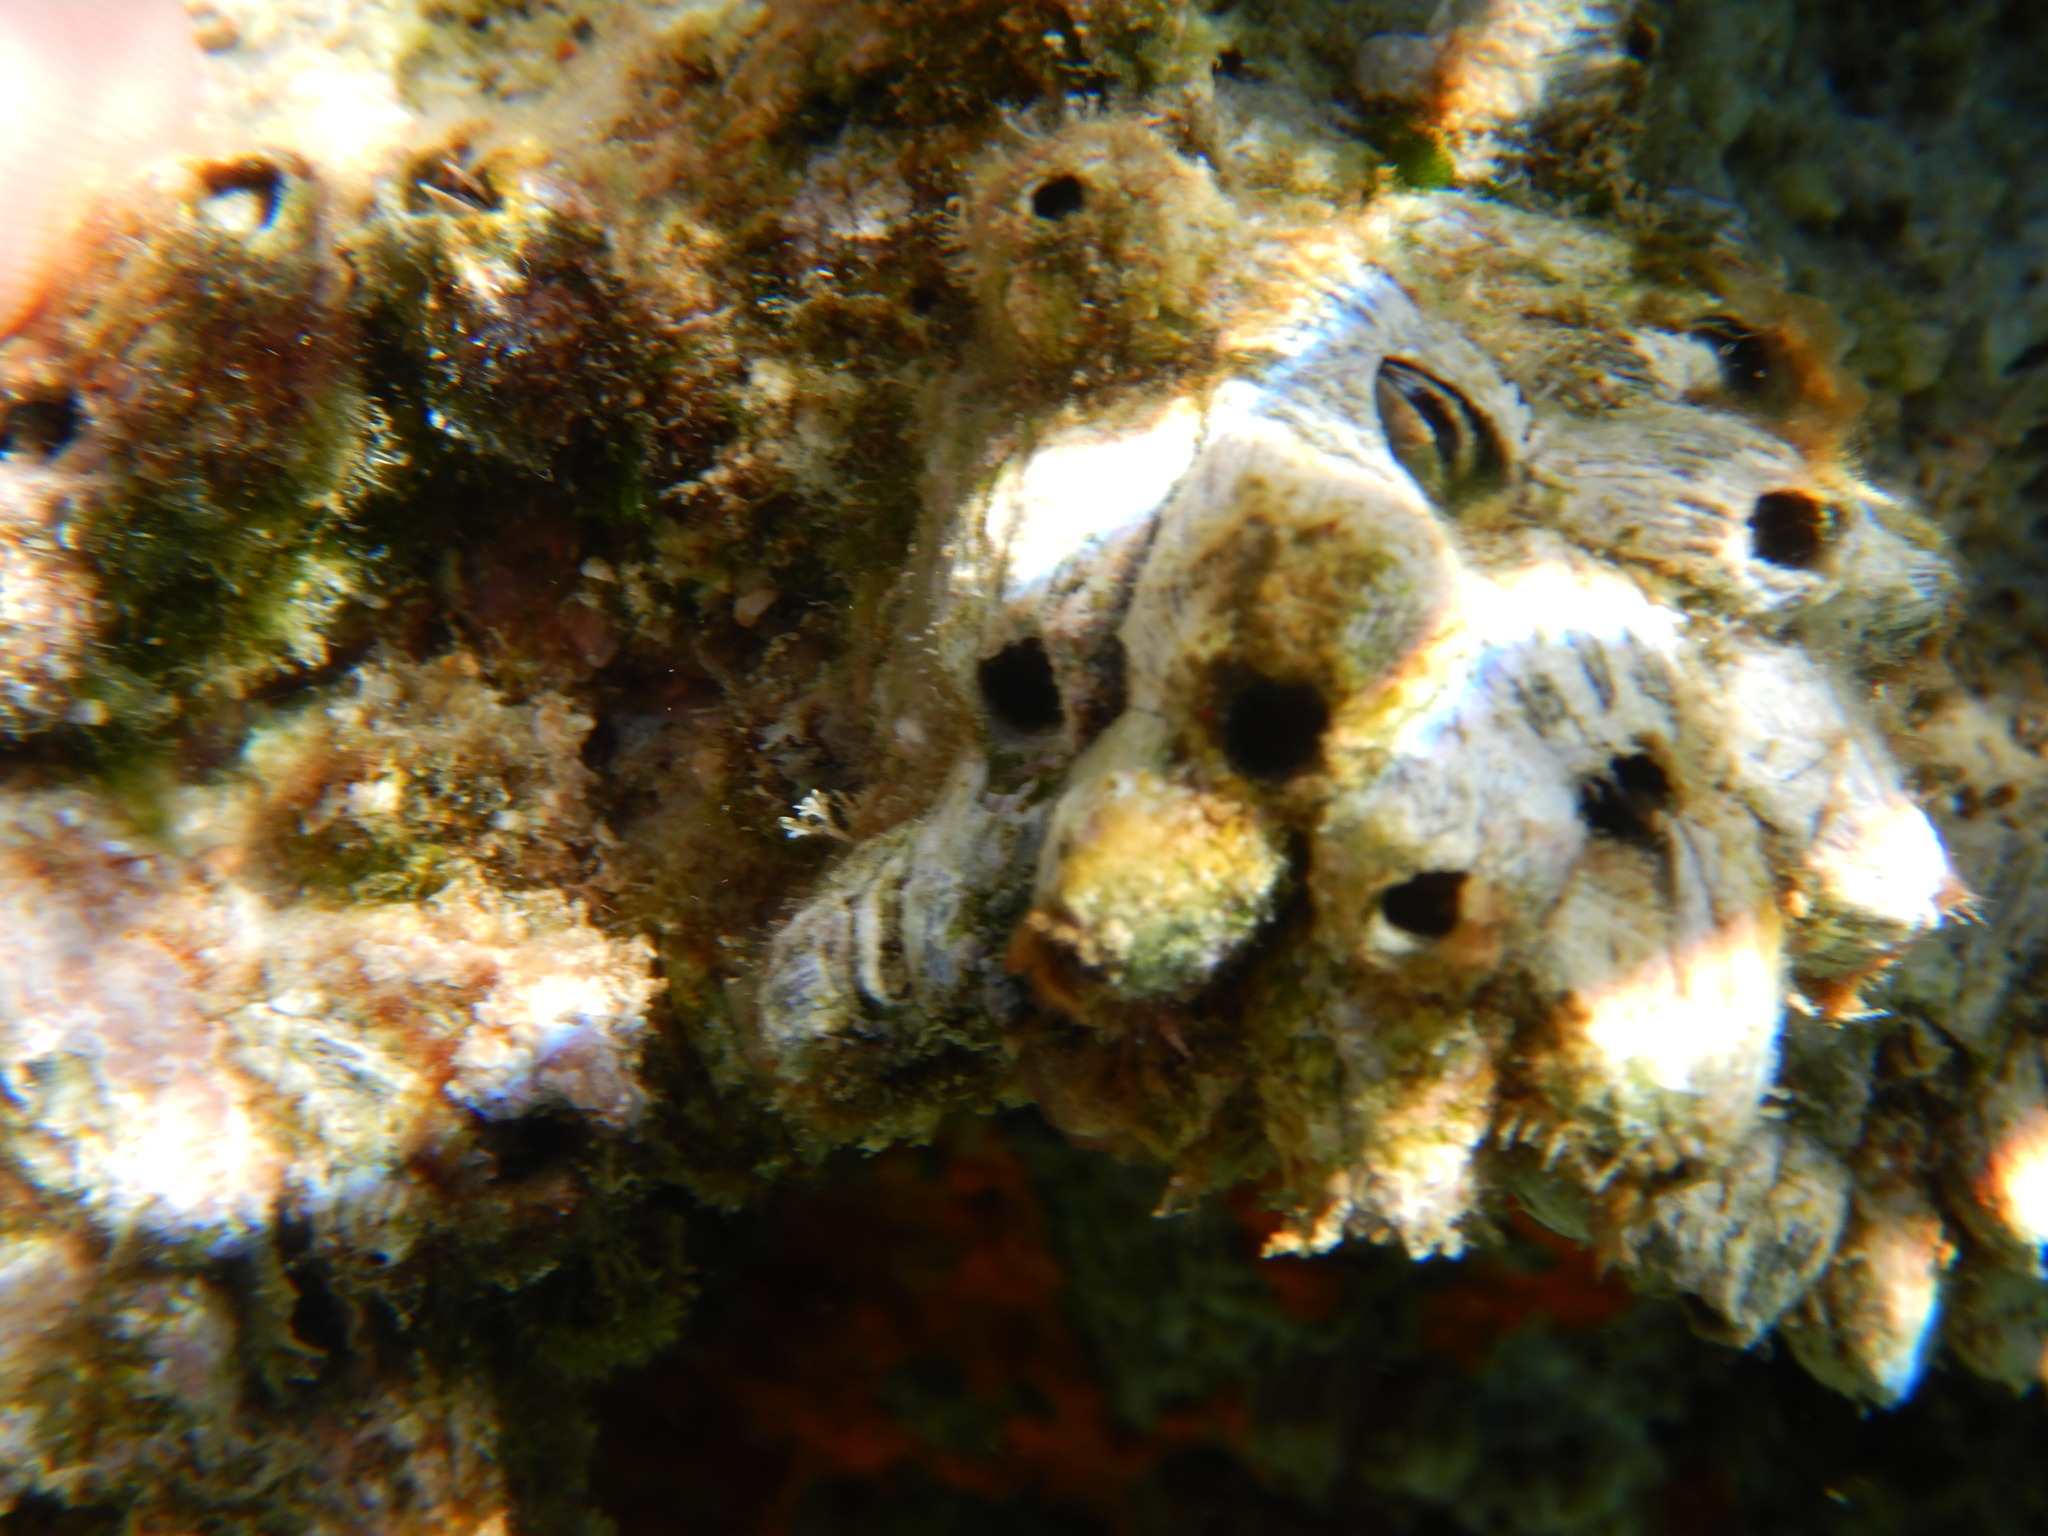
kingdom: Animalia
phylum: Arthropoda
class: Maxillopoda
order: Sessilia
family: Balanidae
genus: Perforatus
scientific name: Perforatus perforatus
